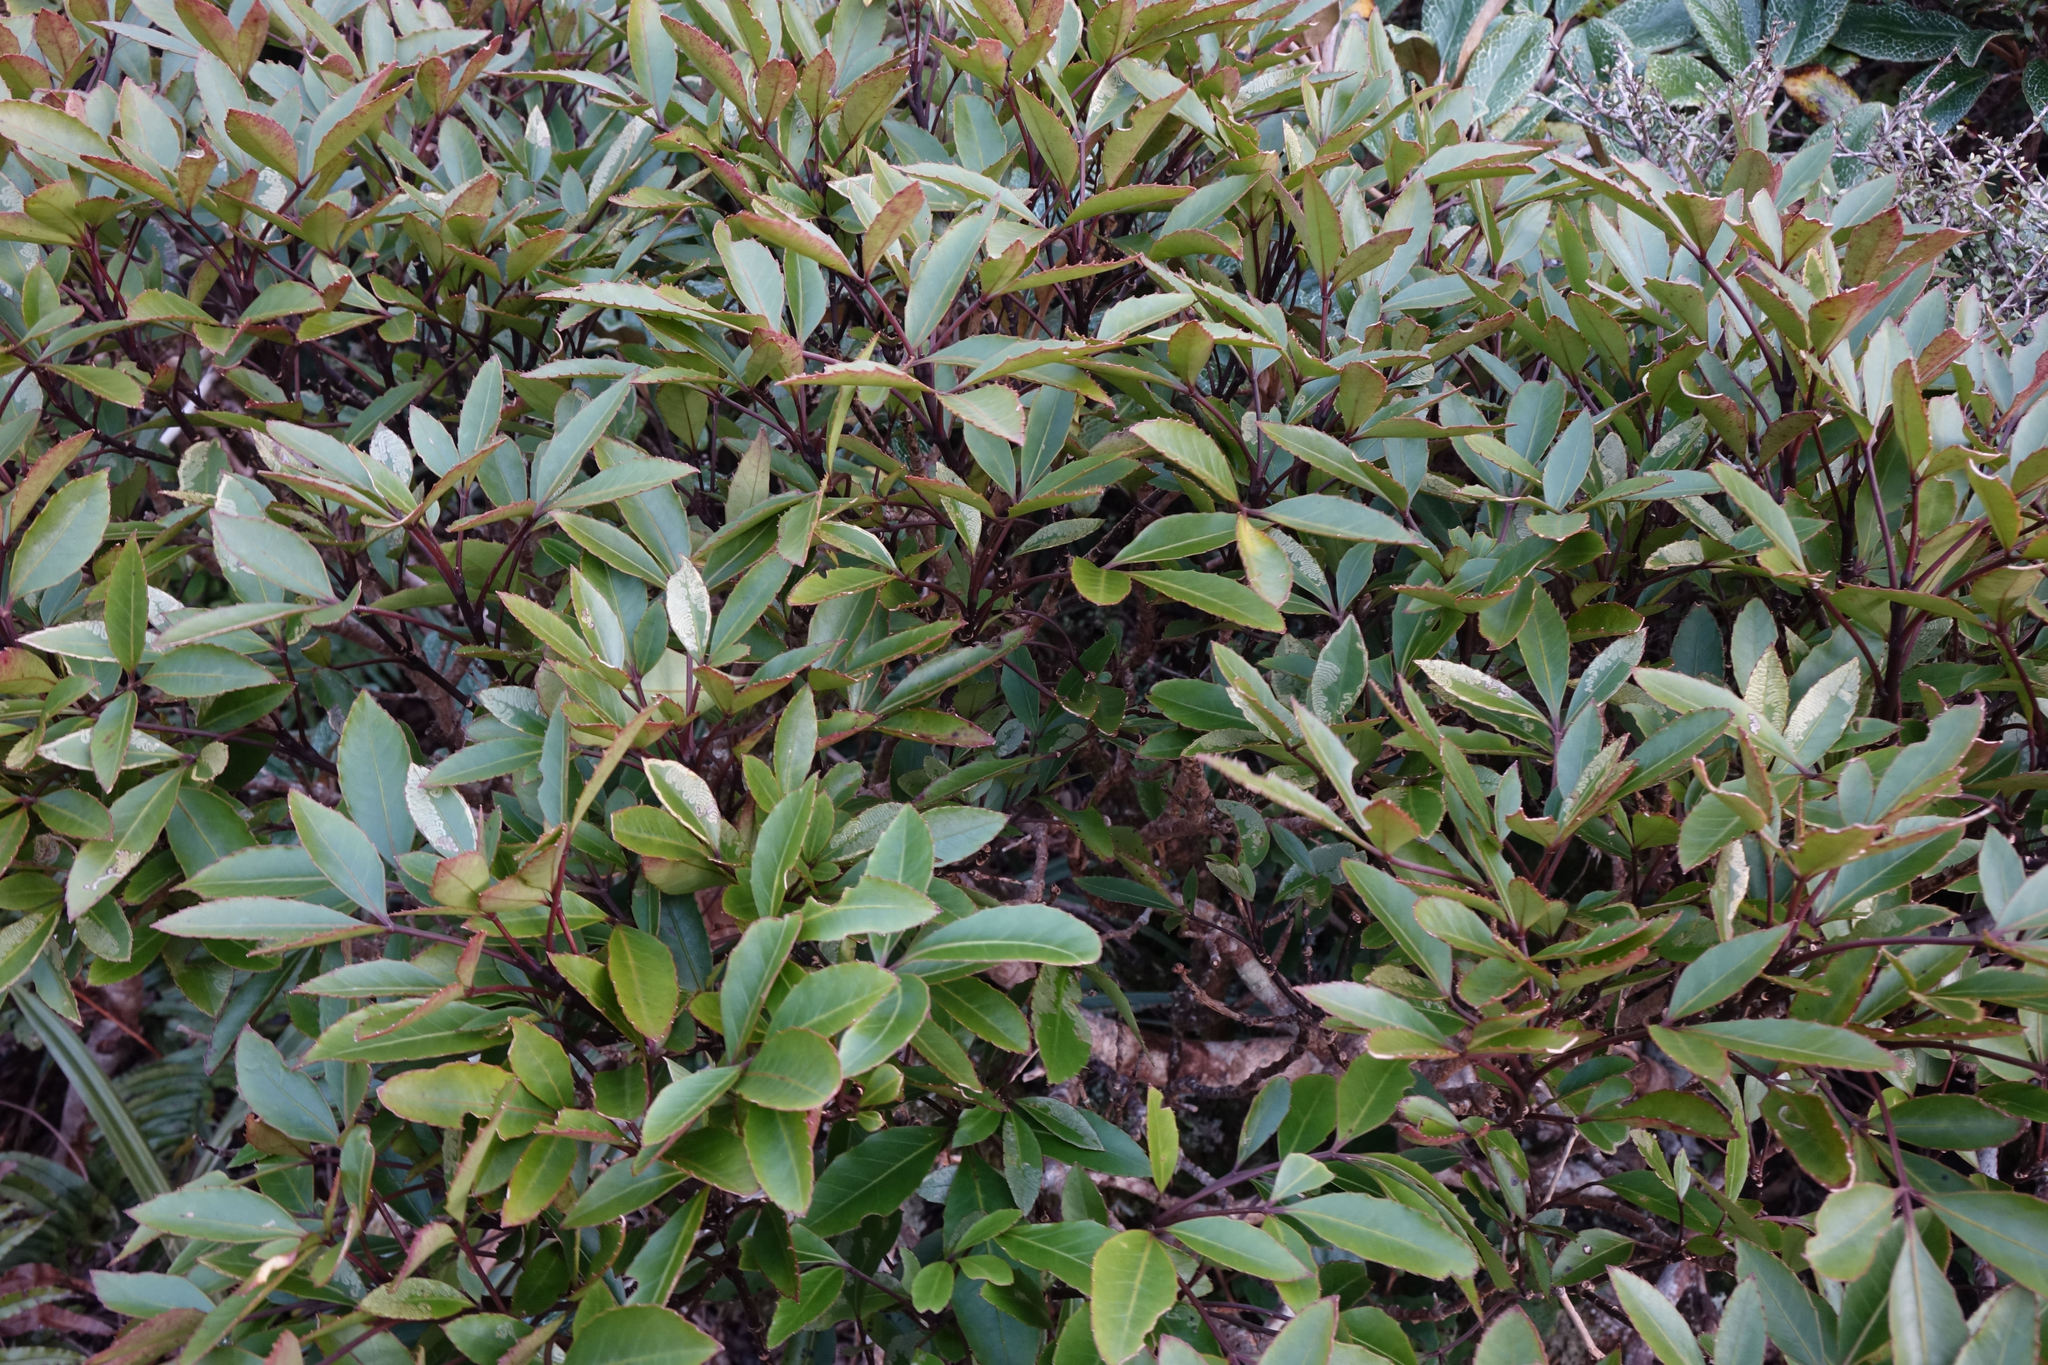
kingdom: Plantae
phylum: Tracheophyta
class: Magnoliopsida
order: Apiales
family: Araliaceae
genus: Raukaua
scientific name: Raukaua simplex
